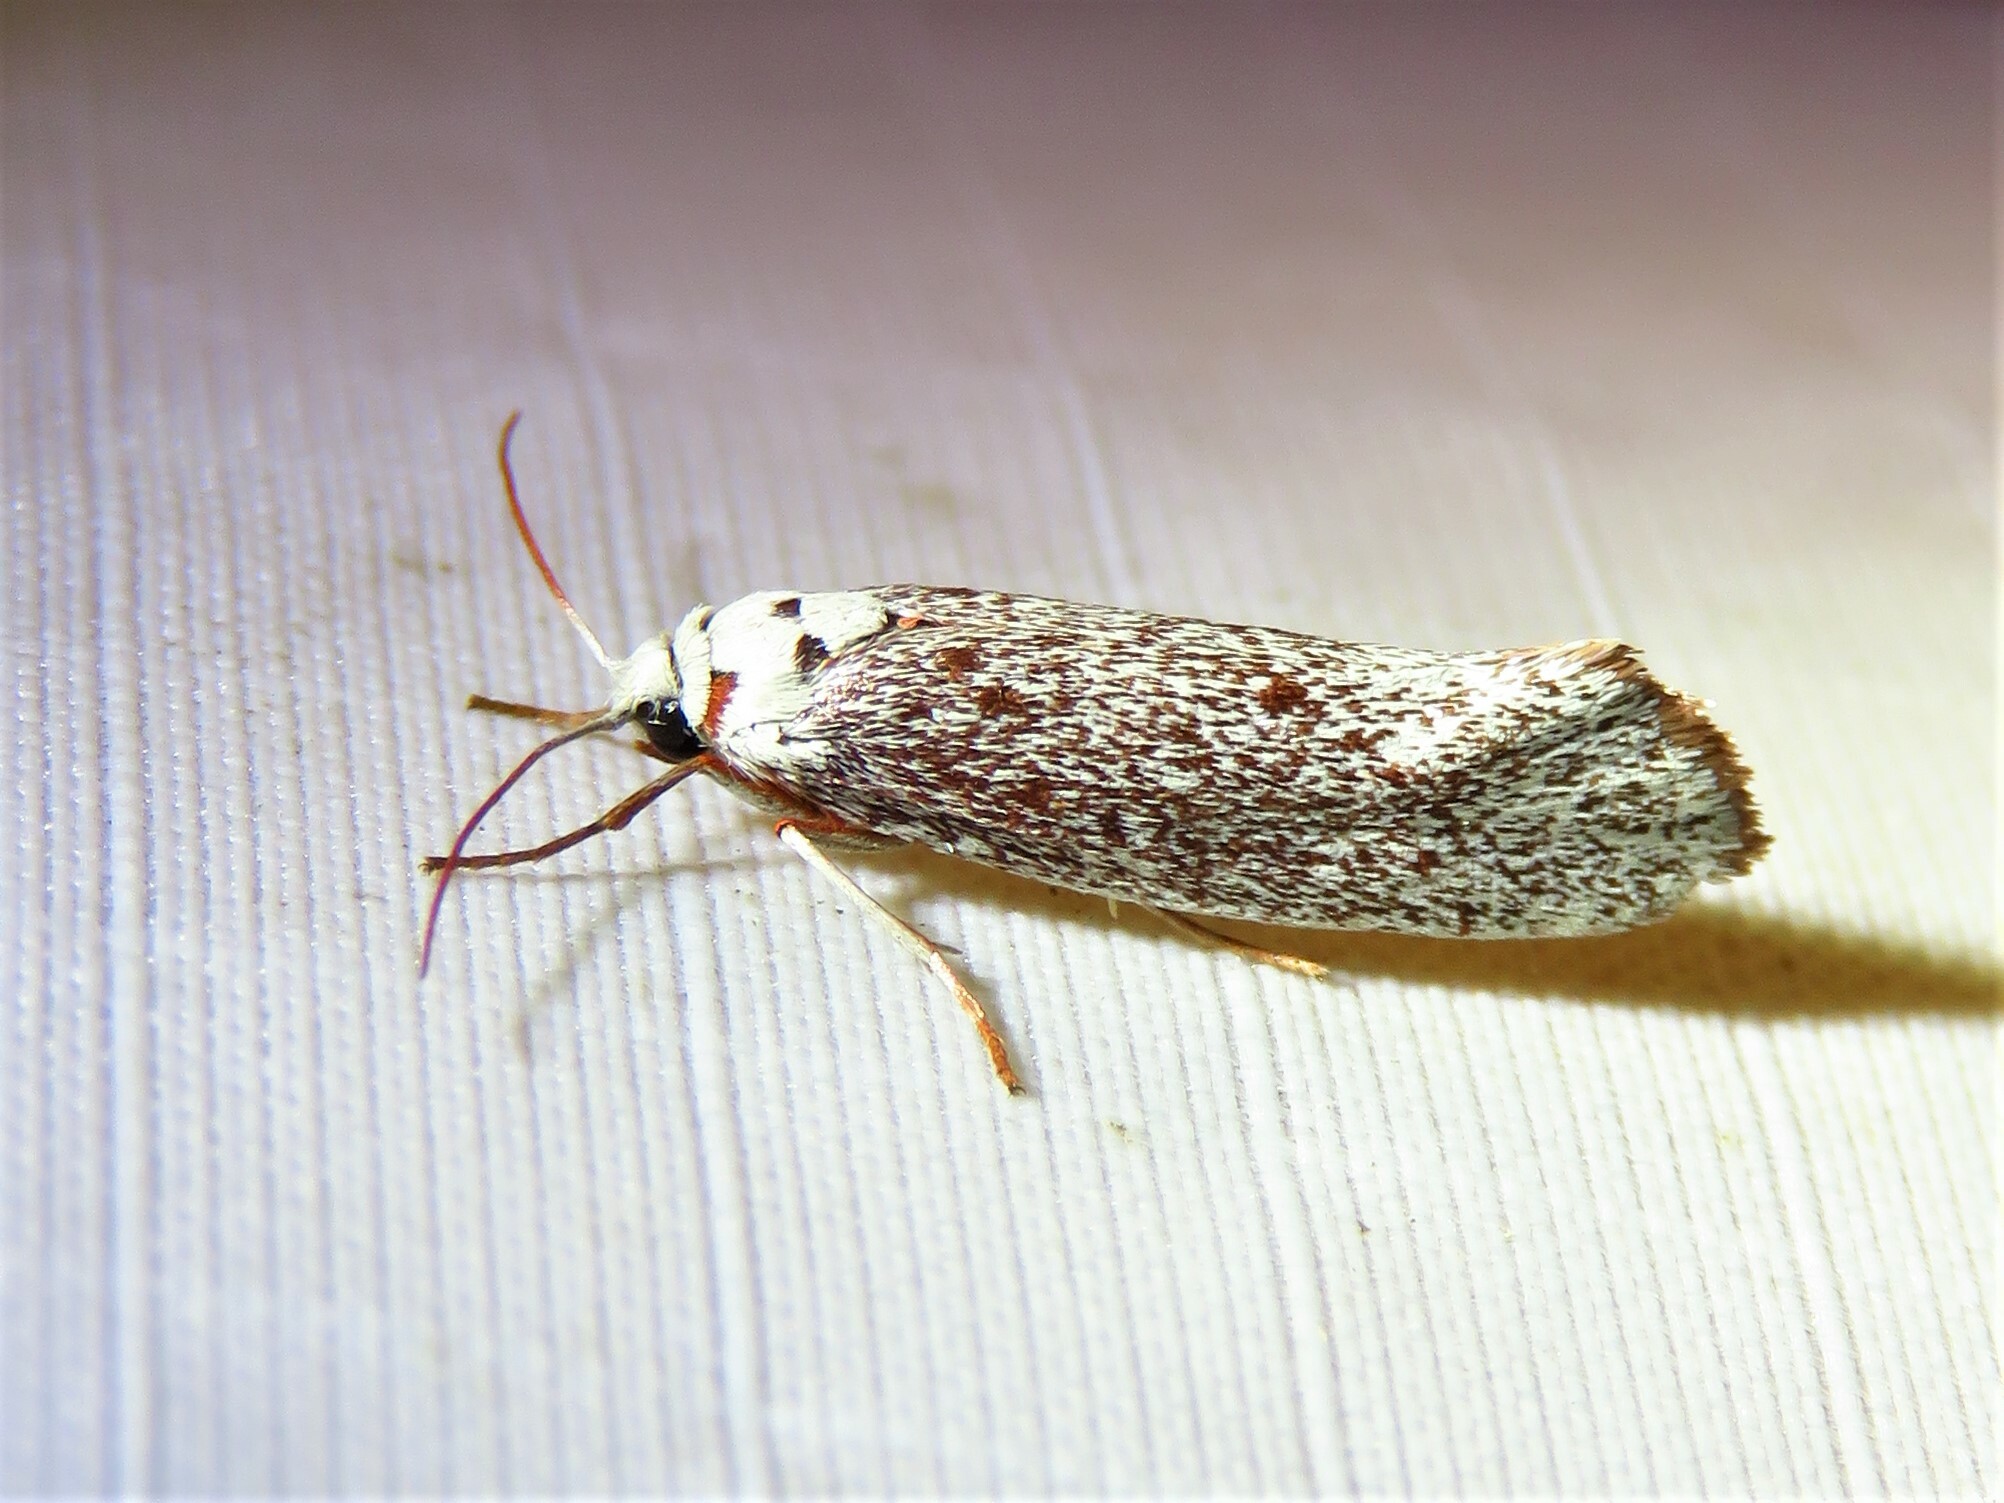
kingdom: Animalia
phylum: Arthropoda
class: Insecta
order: Lepidoptera
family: Lacturidae
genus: Lactura
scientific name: Lactura
